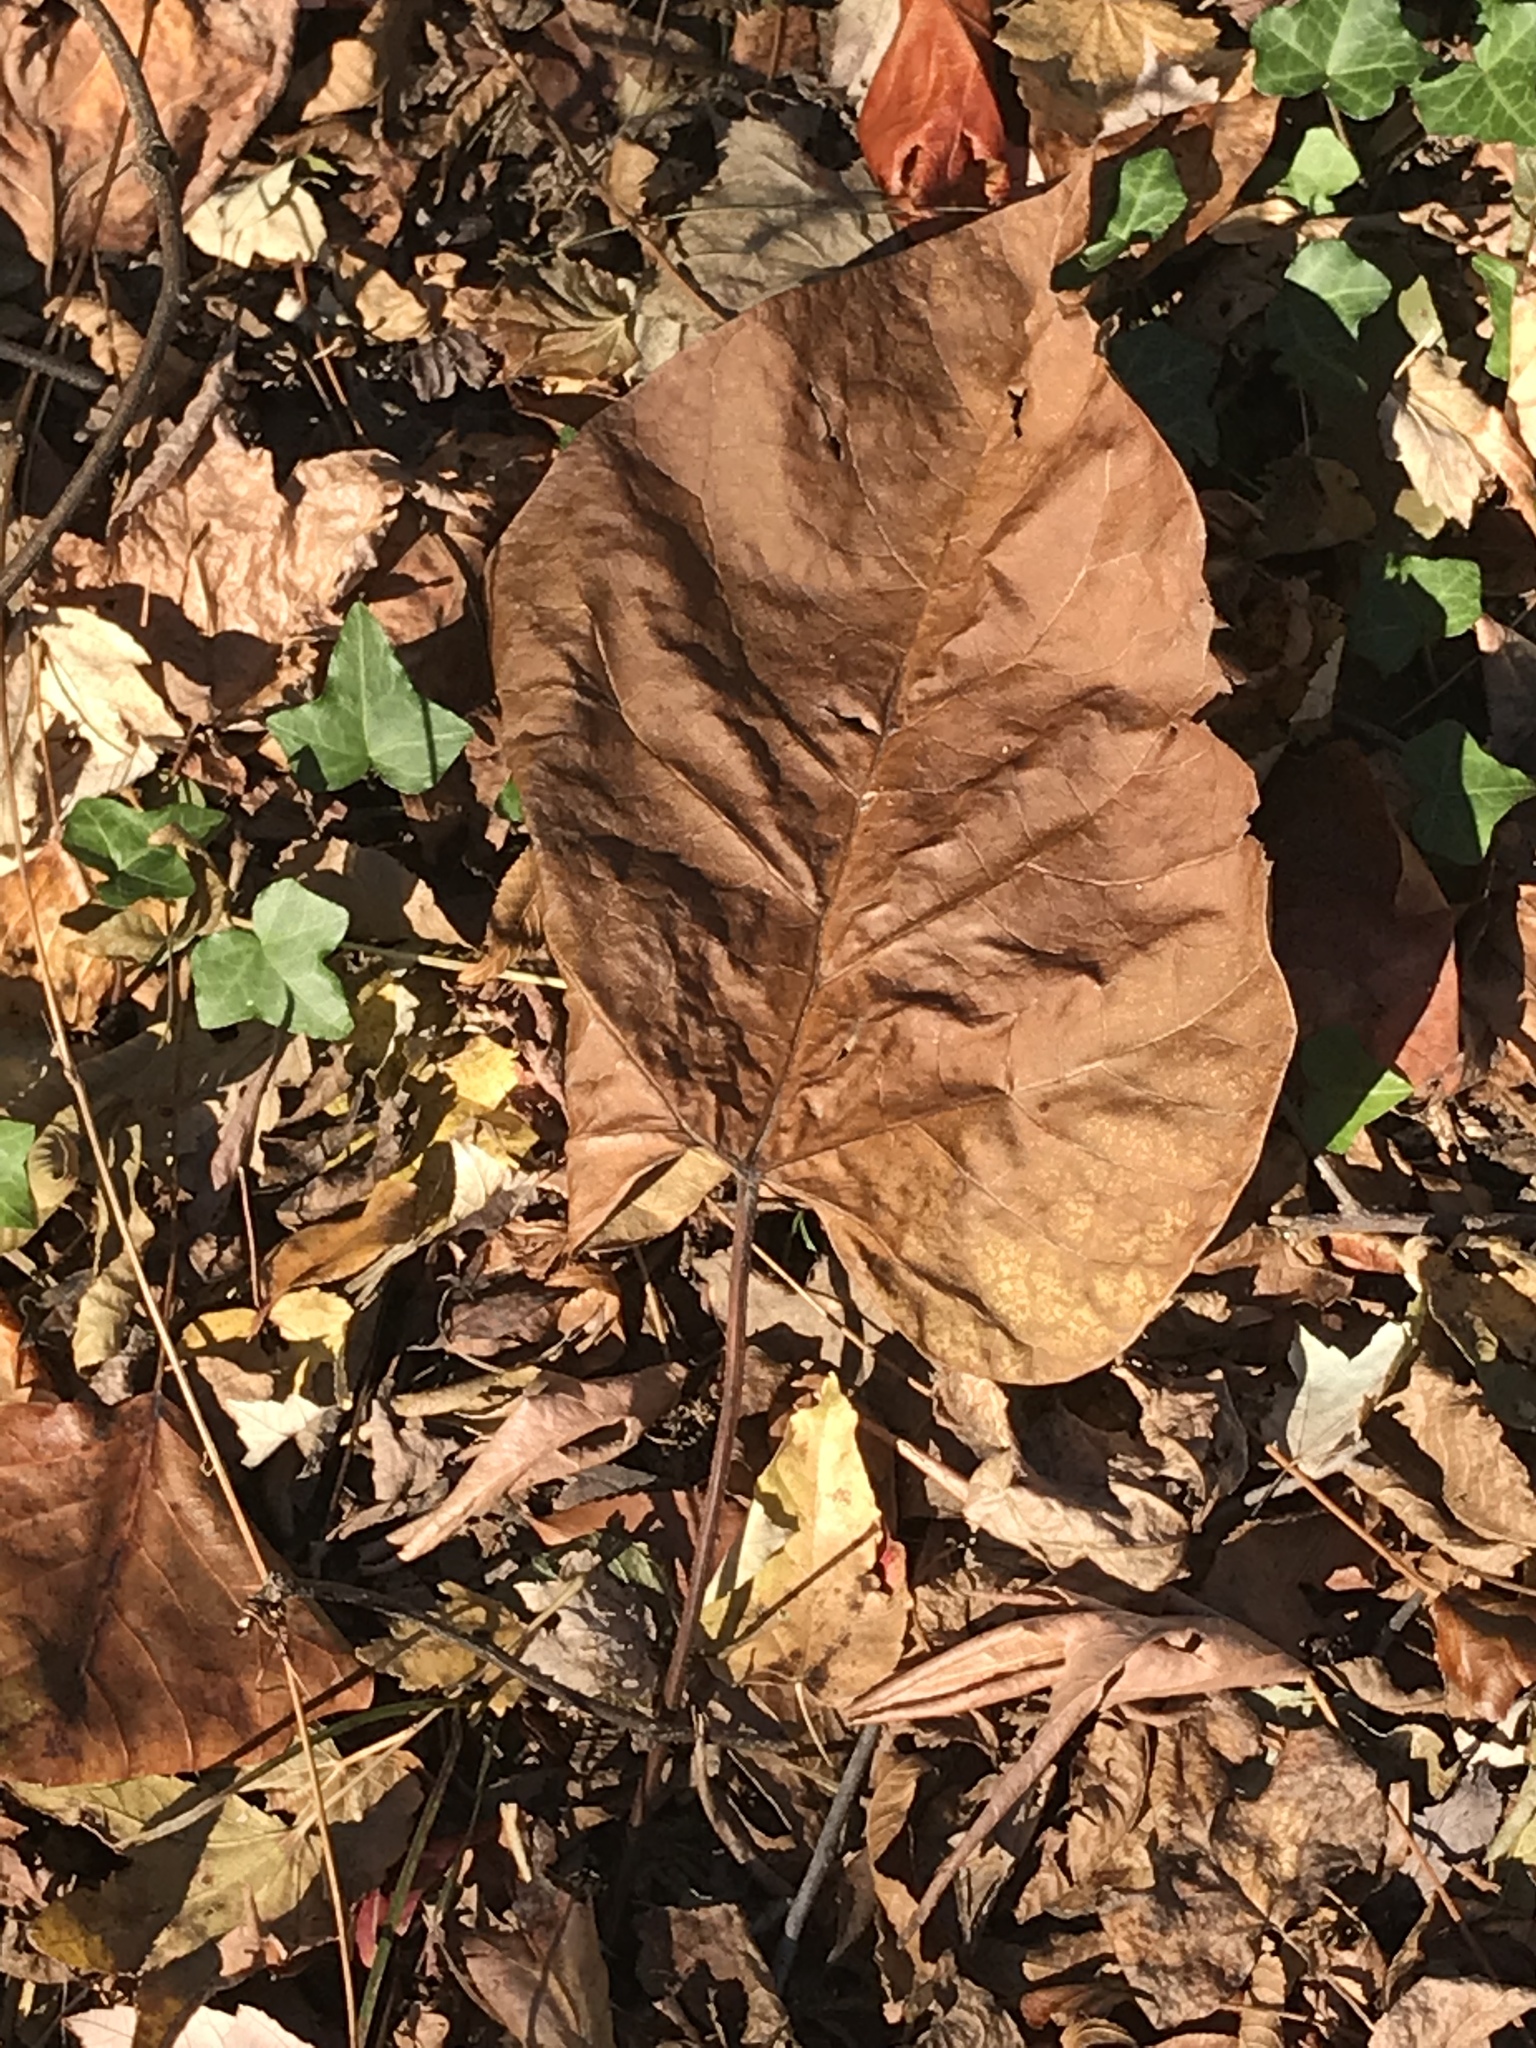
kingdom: Plantae
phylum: Tracheophyta
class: Magnoliopsida
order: Lamiales
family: Paulowniaceae
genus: Paulownia
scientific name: Paulownia tomentosa
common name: Foxglove-tree
